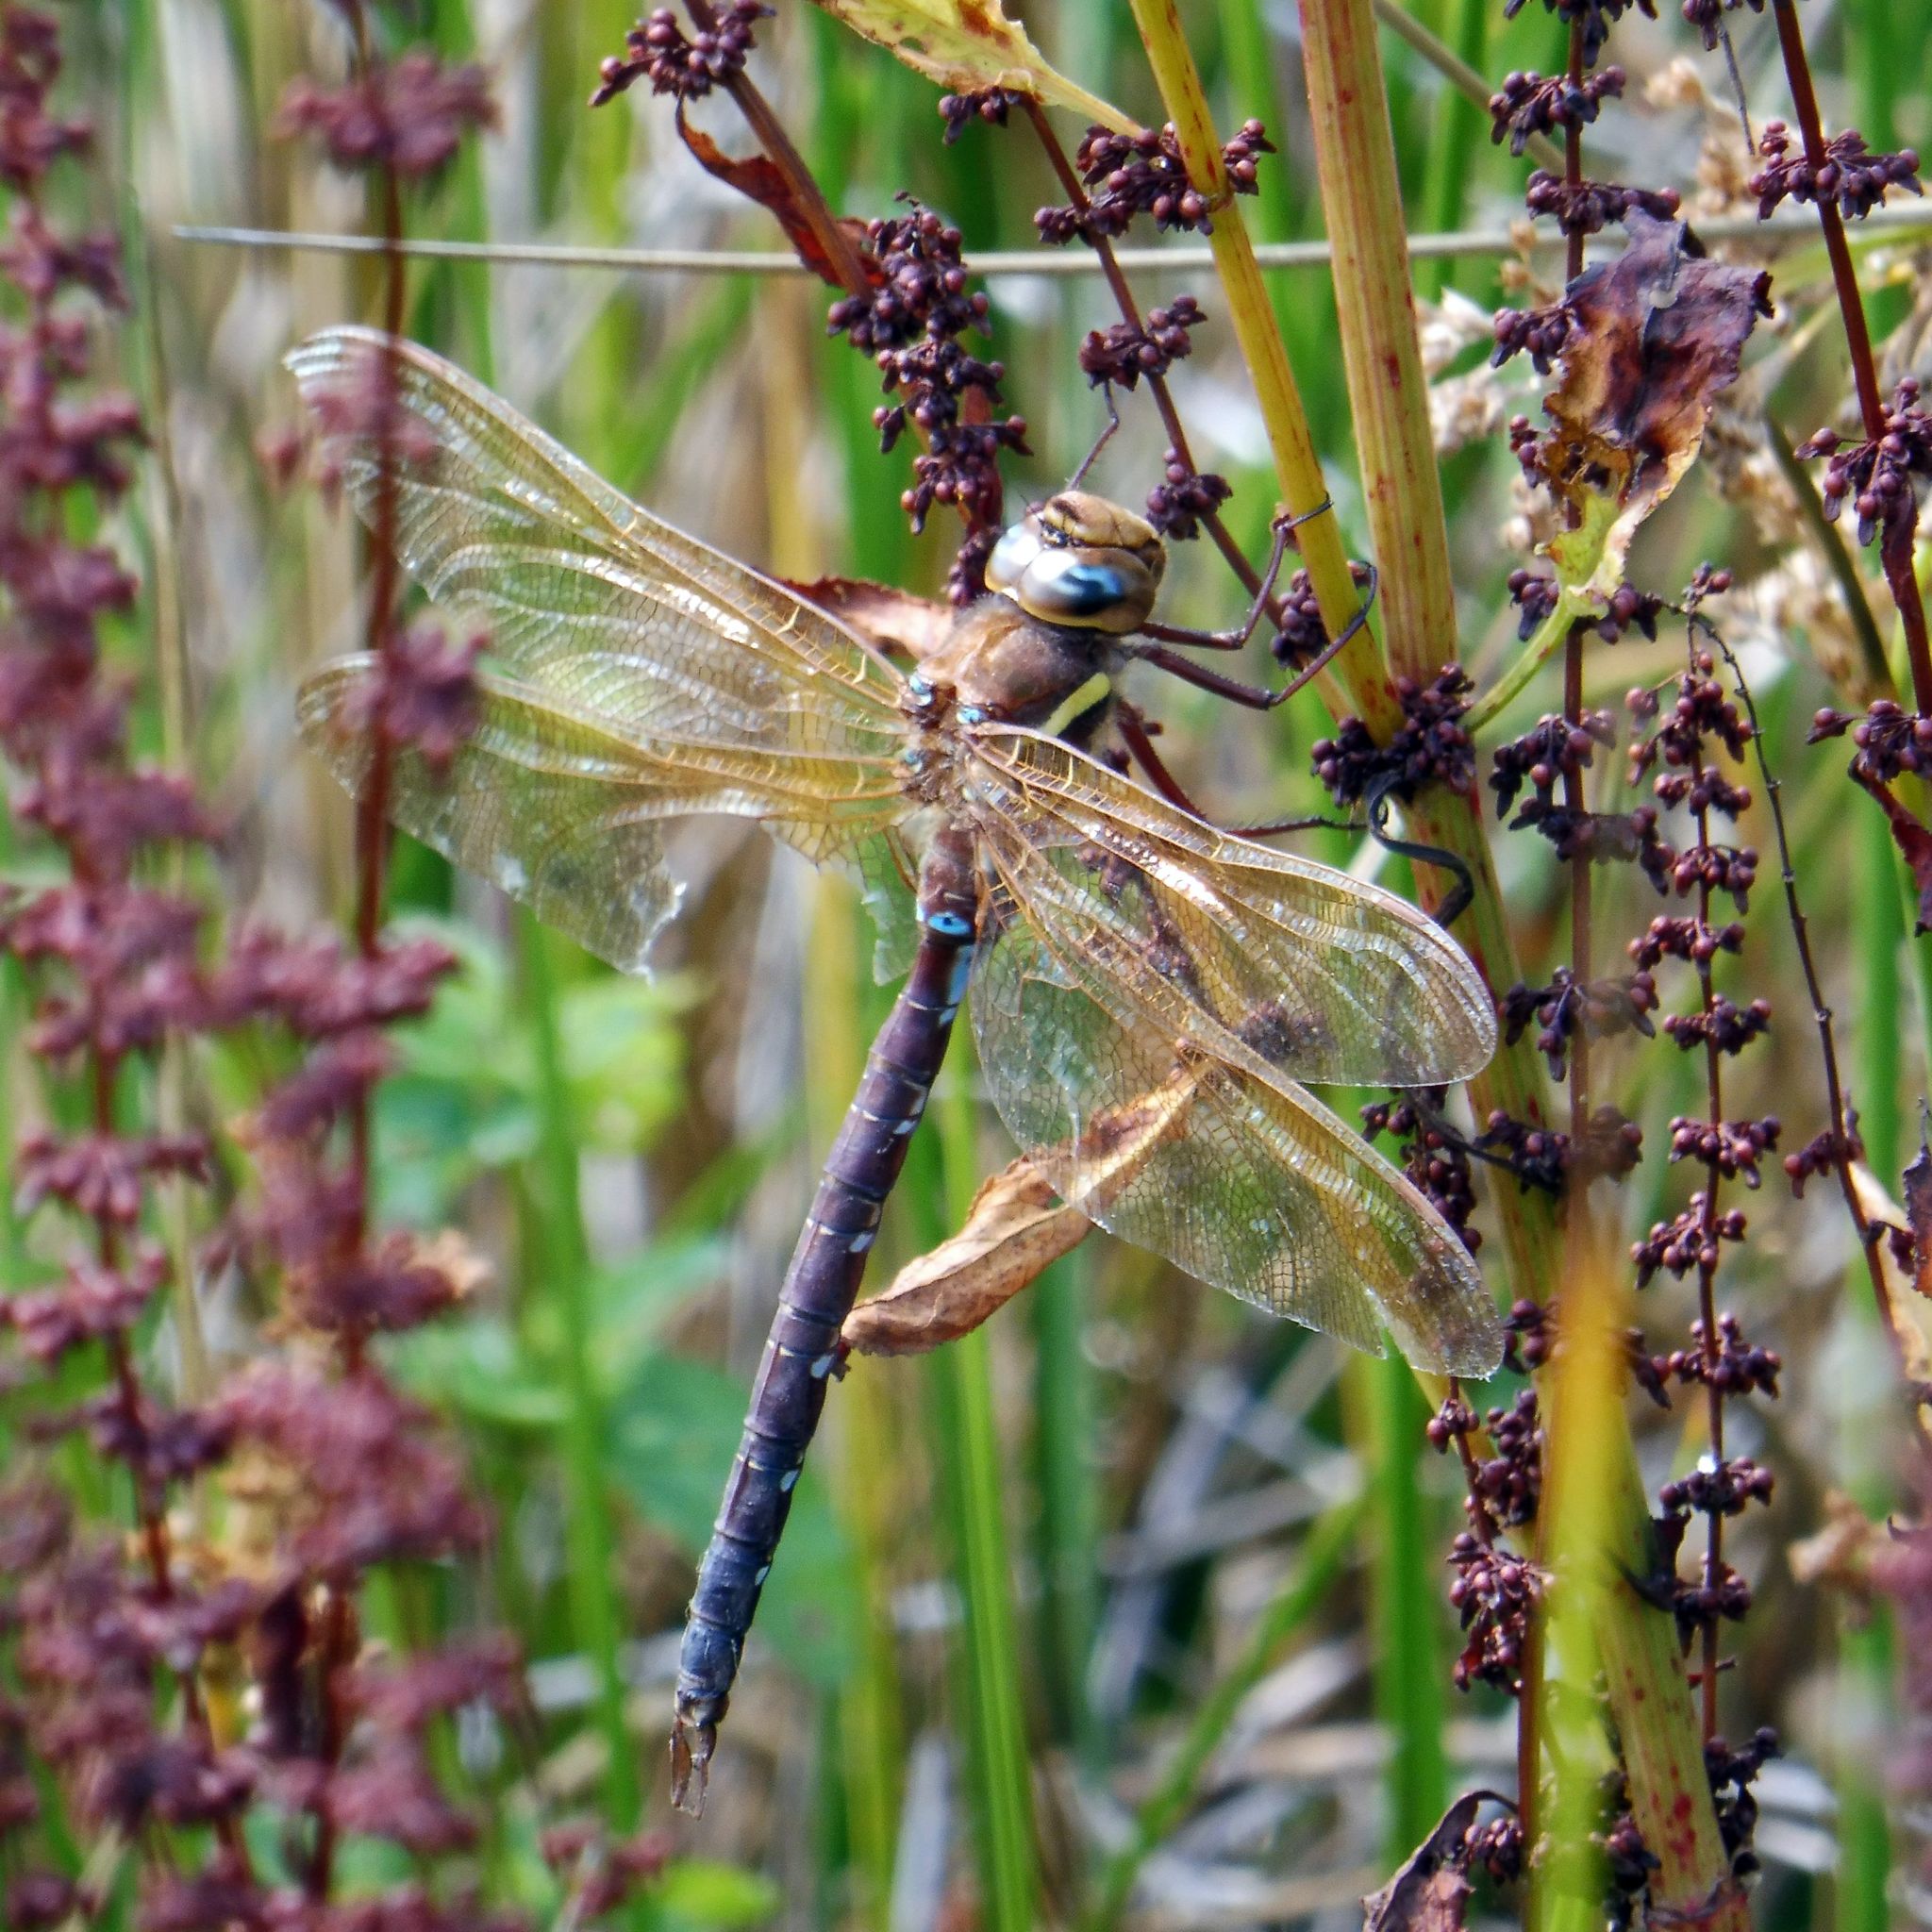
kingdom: Animalia
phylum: Arthropoda
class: Insecta
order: Odonata
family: Aeshnidae
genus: Aeshna
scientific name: Aeshna grandis
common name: Brown hawker
